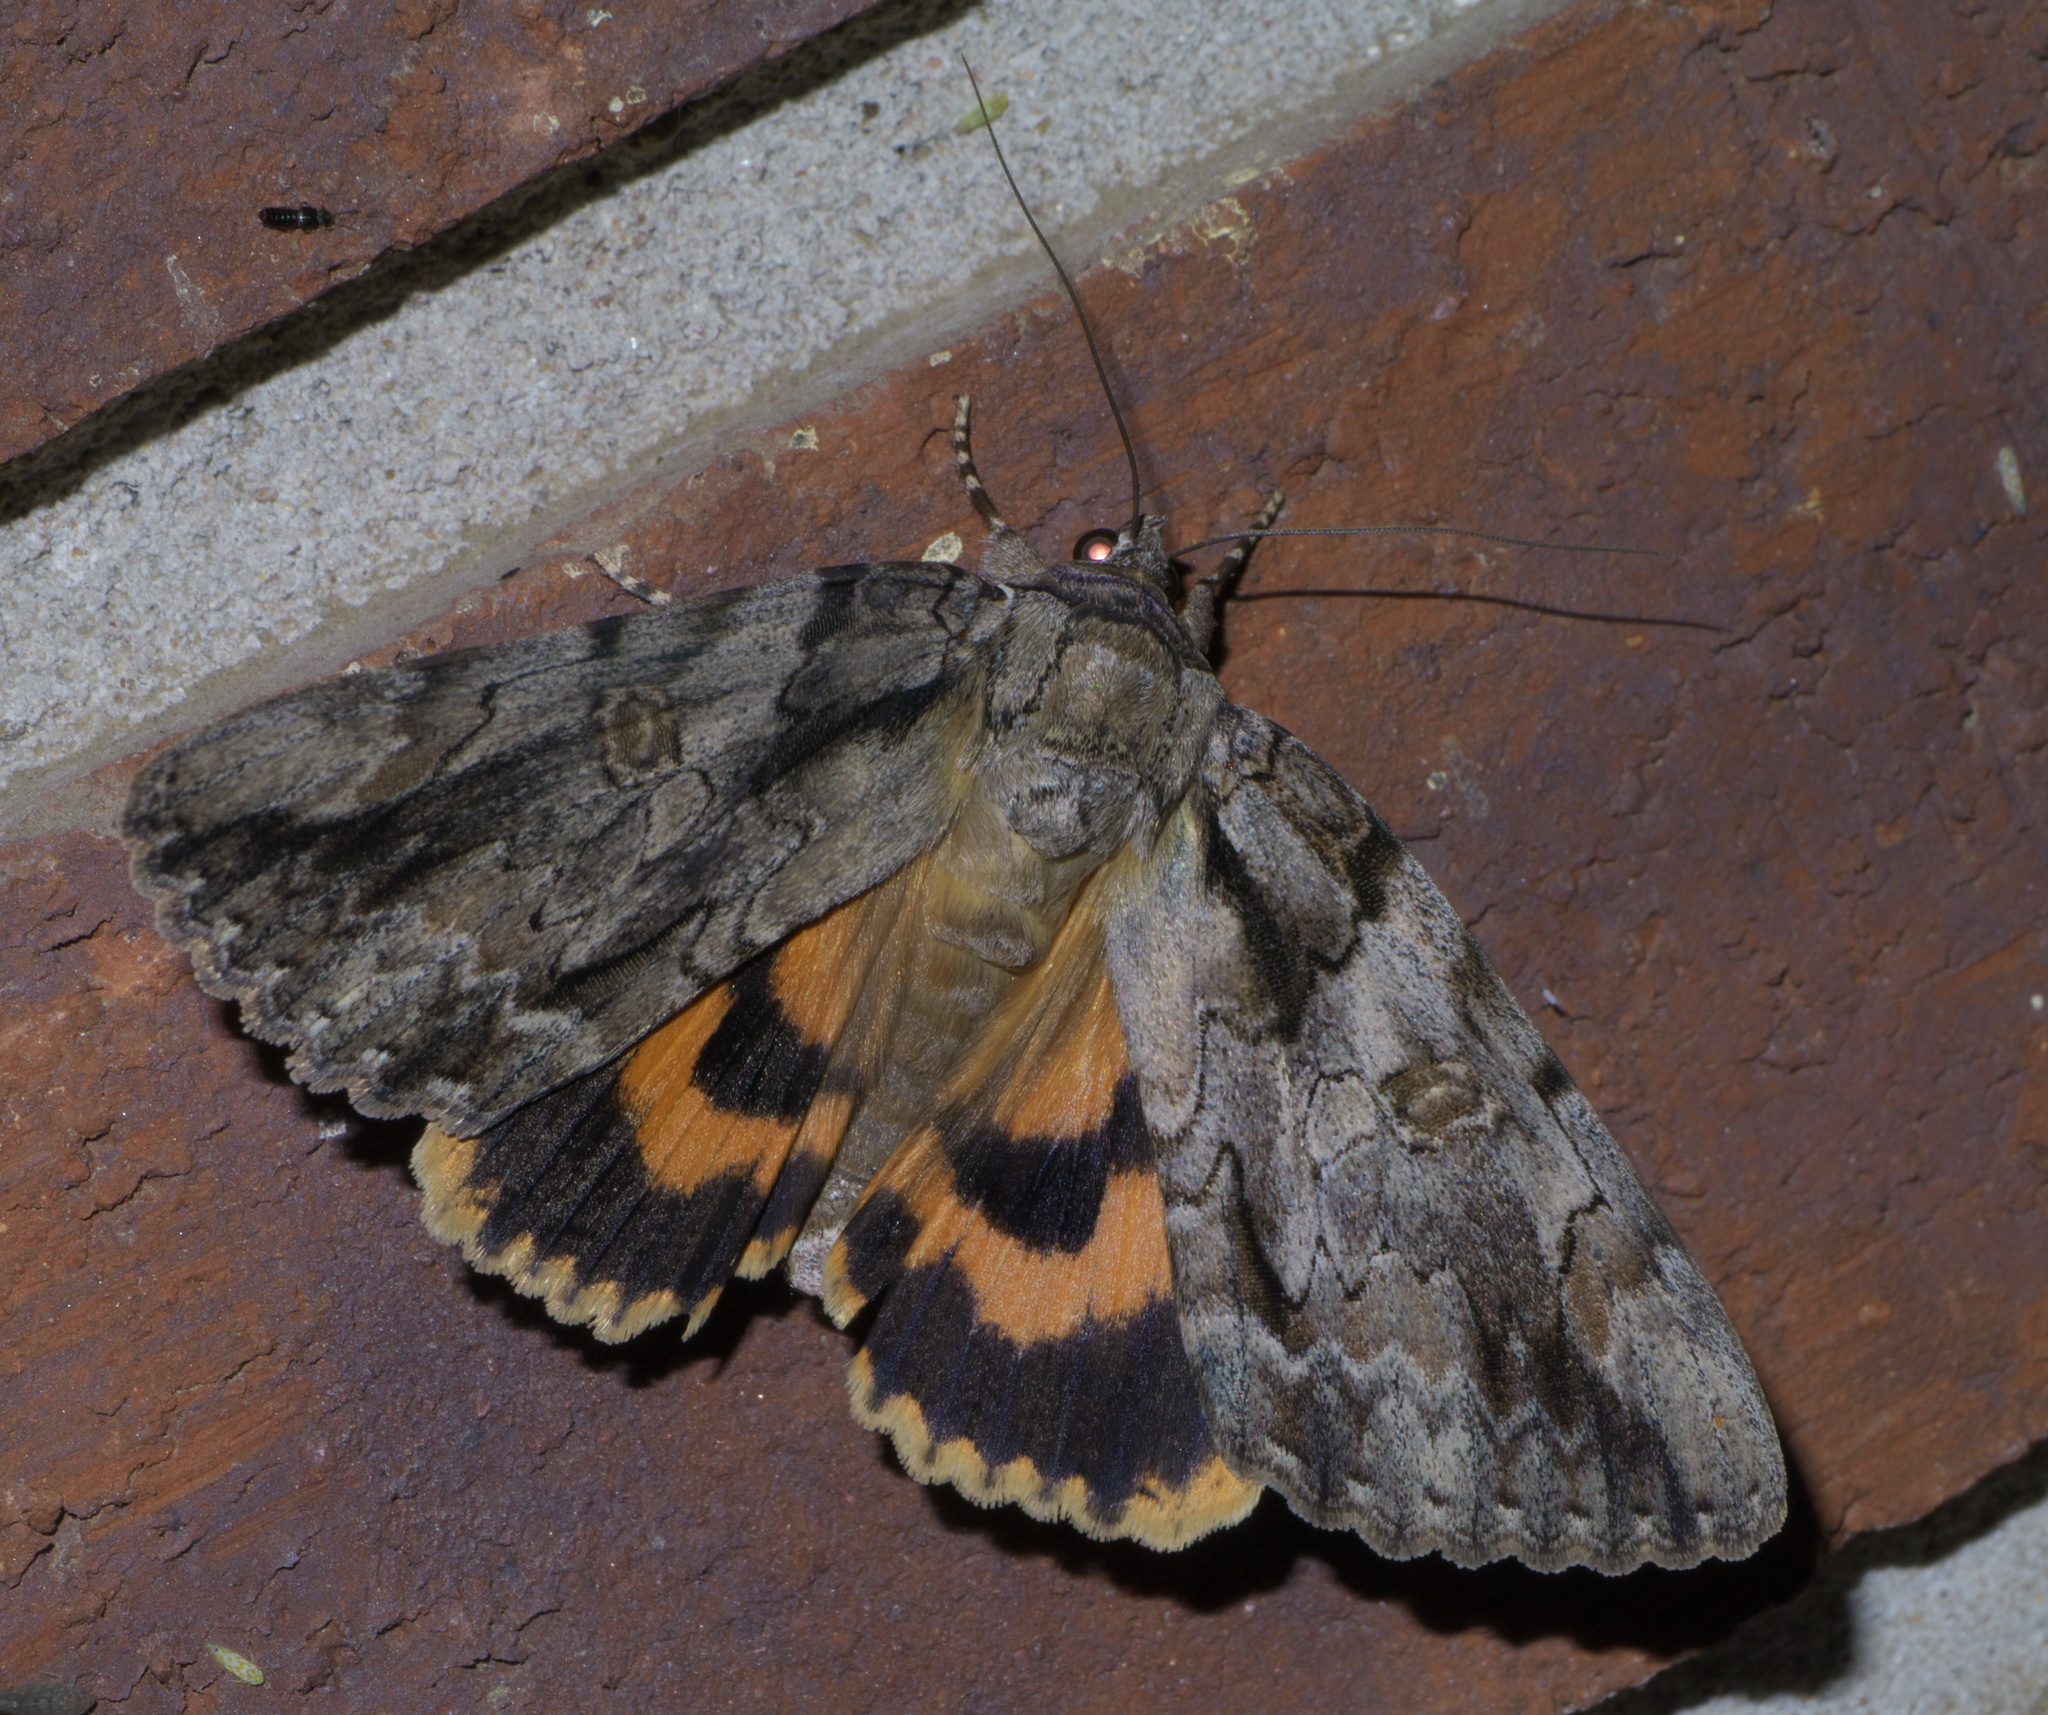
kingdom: Animalia
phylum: Arthropoda
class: Insecta
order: Lepidoptera
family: Erebidae
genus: Catocala
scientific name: Catocala neogama
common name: Bride underwing
